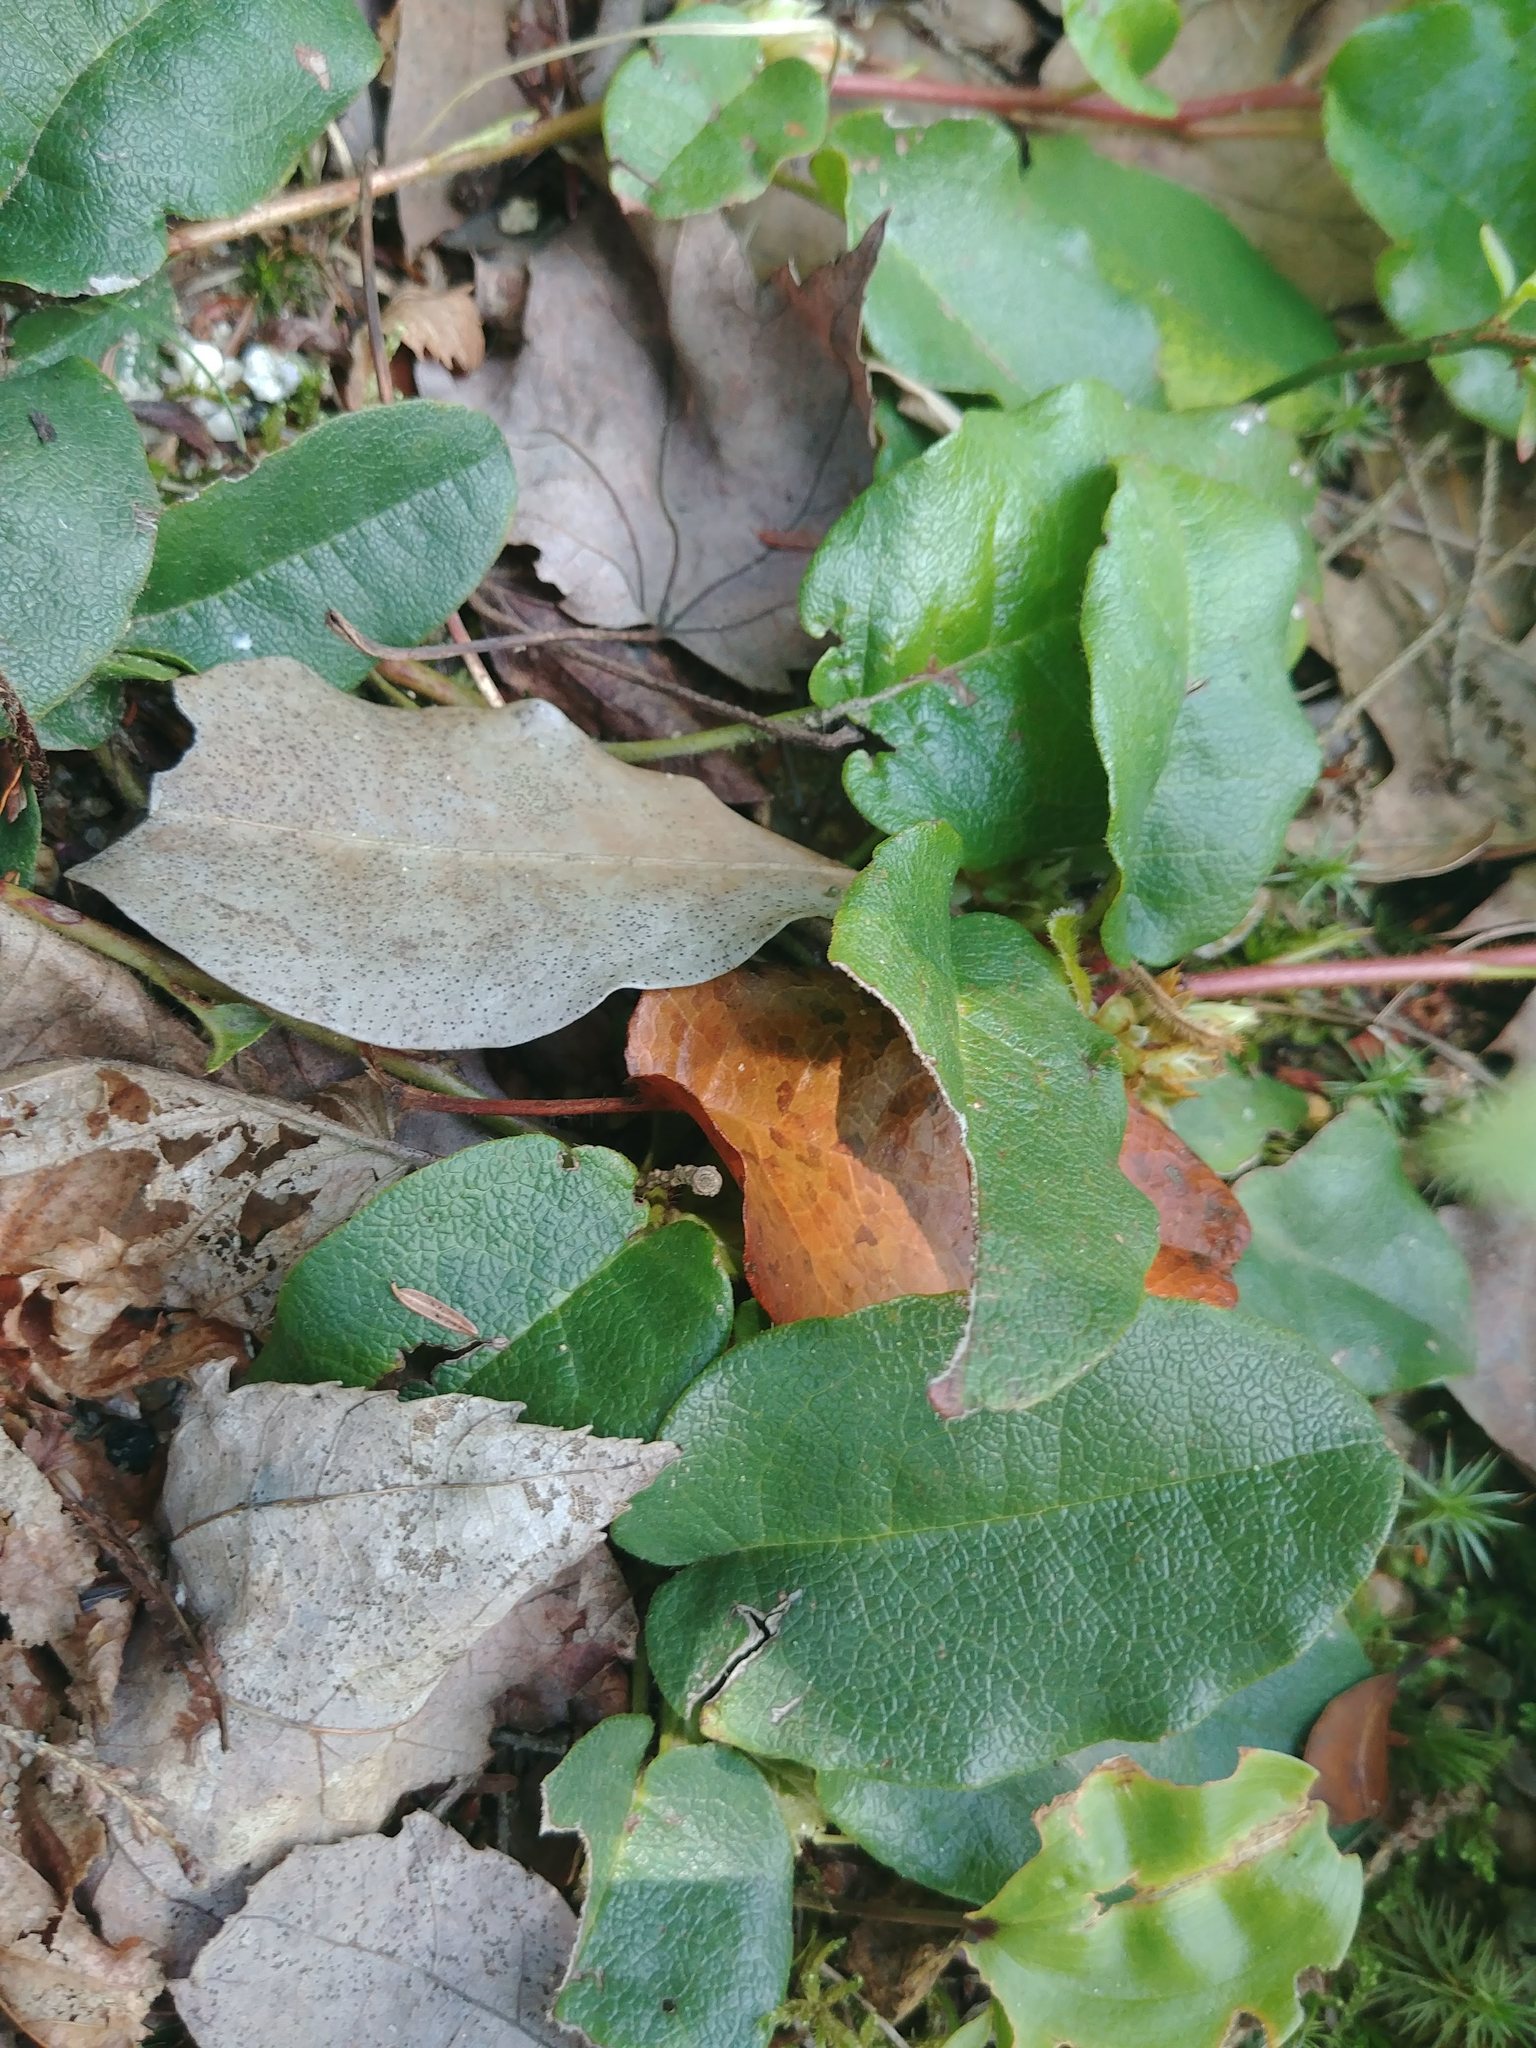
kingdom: Plantae
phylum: Tracheophyta
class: Magnoliopsida
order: Ericales
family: Ericaceae
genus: Epigaea
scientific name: Epigaea repens
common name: Gravelroot
